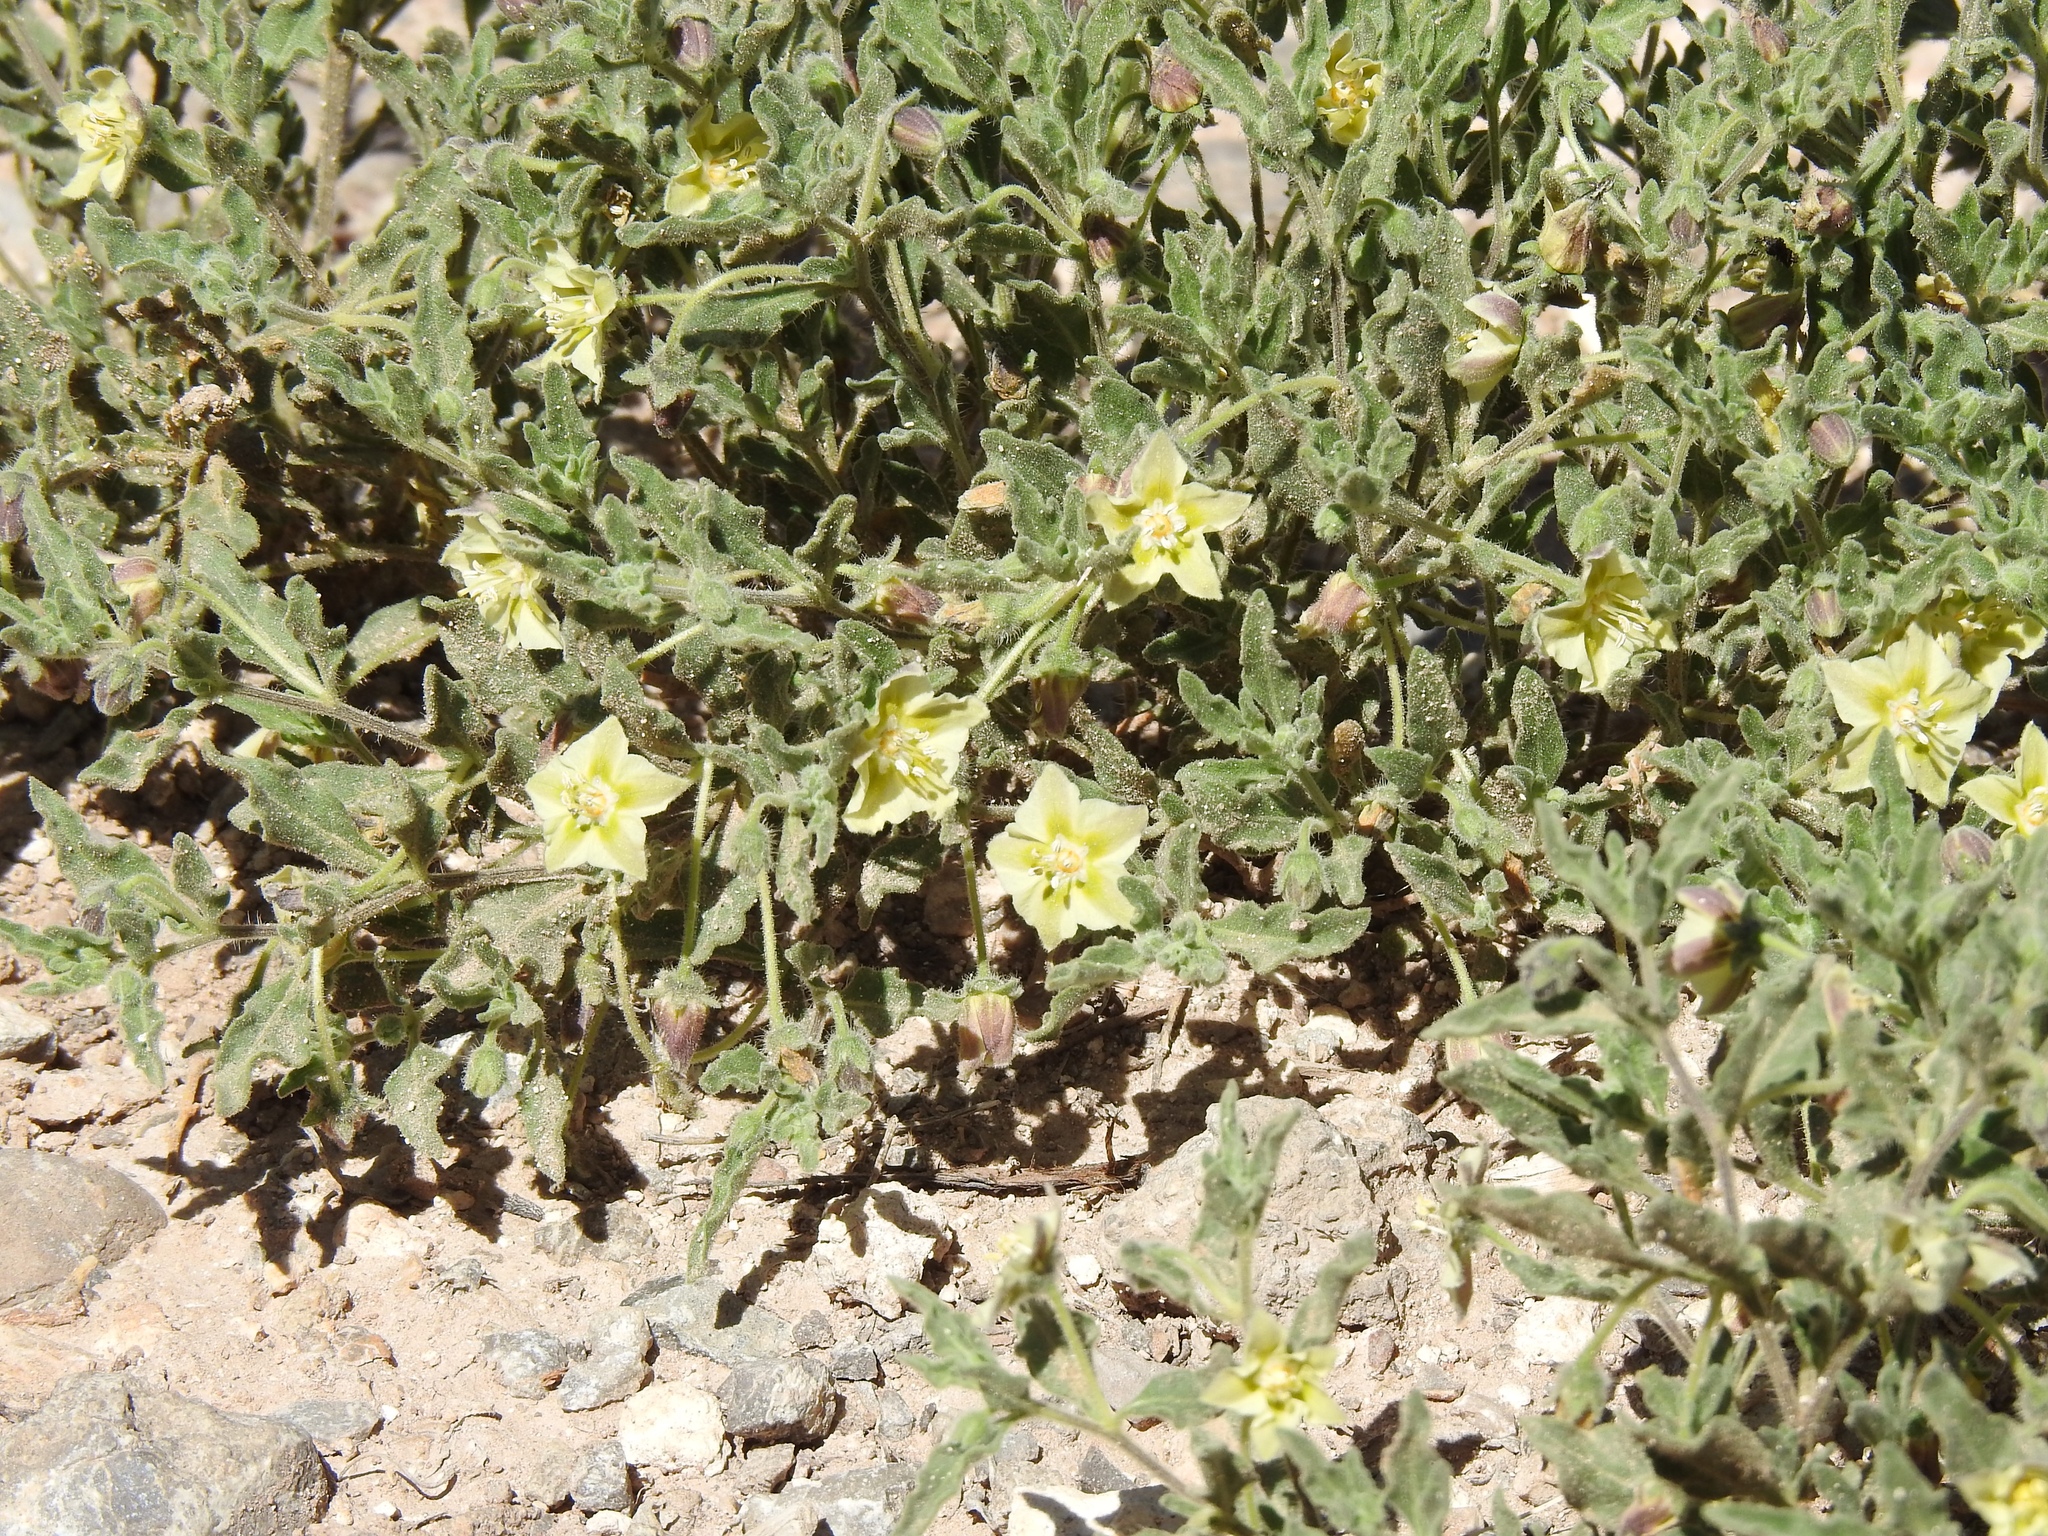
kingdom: Plantae
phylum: Tracheophyta
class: Magnoliopsida
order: Solanales
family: Solanaceae
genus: Chamaesaracha
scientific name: Chamaesaracha sordida
